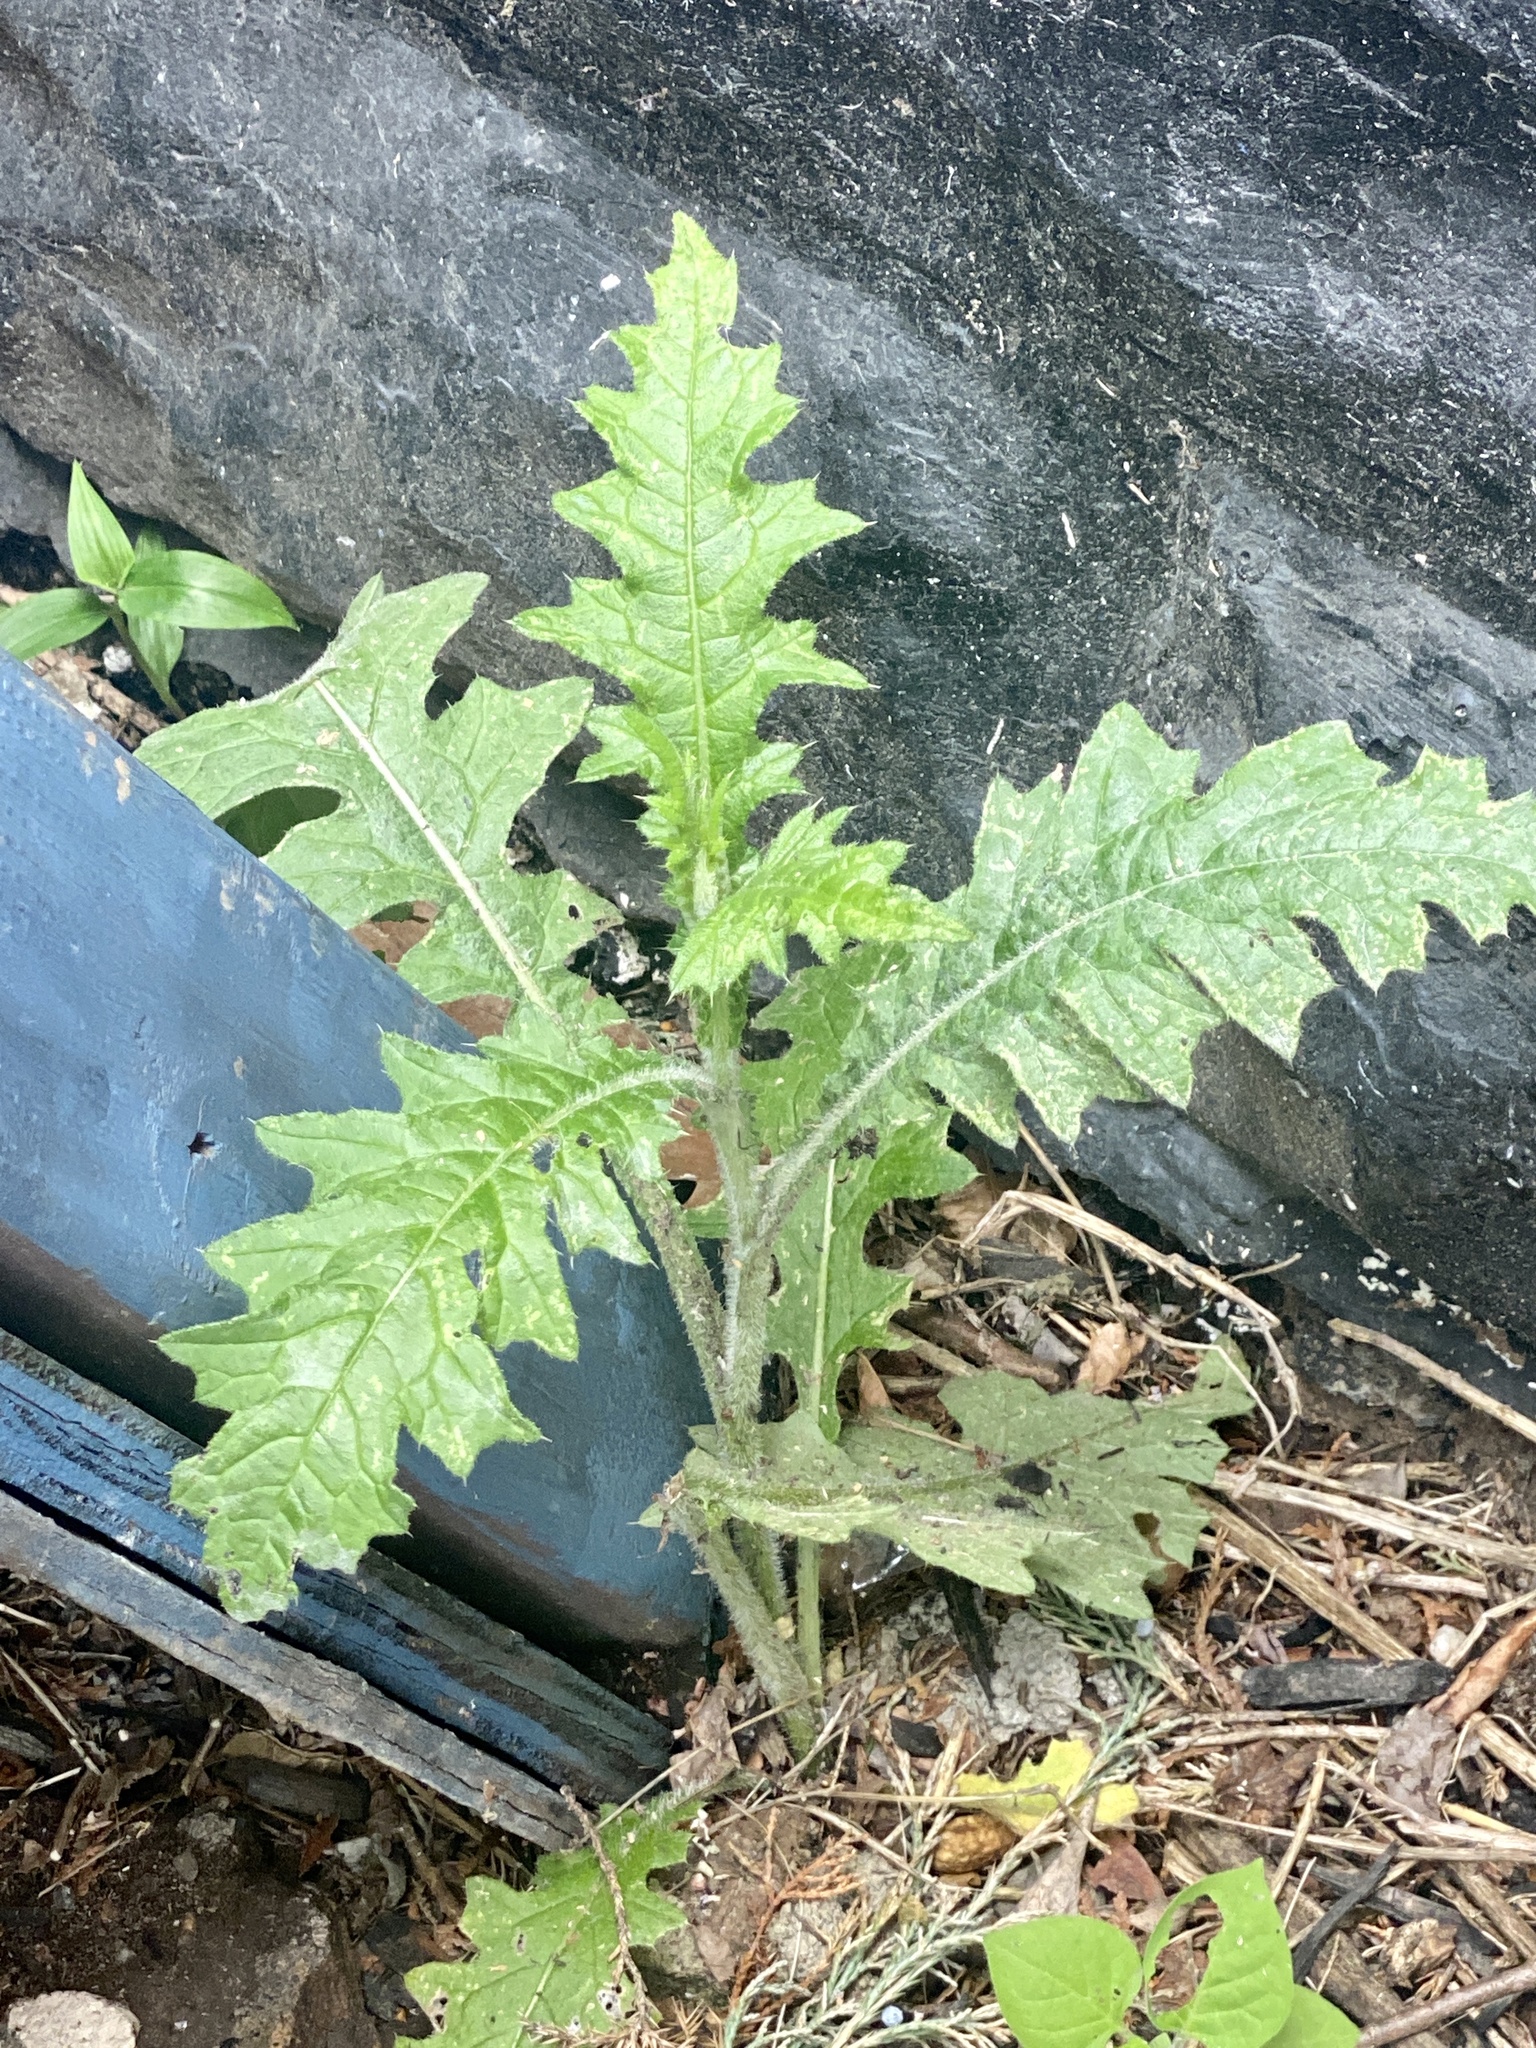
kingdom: Plantae
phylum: Tracheophyta
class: Magnoliopsida
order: Asterales
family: Asteraceae
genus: Cirsium
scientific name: Cirsium vulgare
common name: Bull thistle
